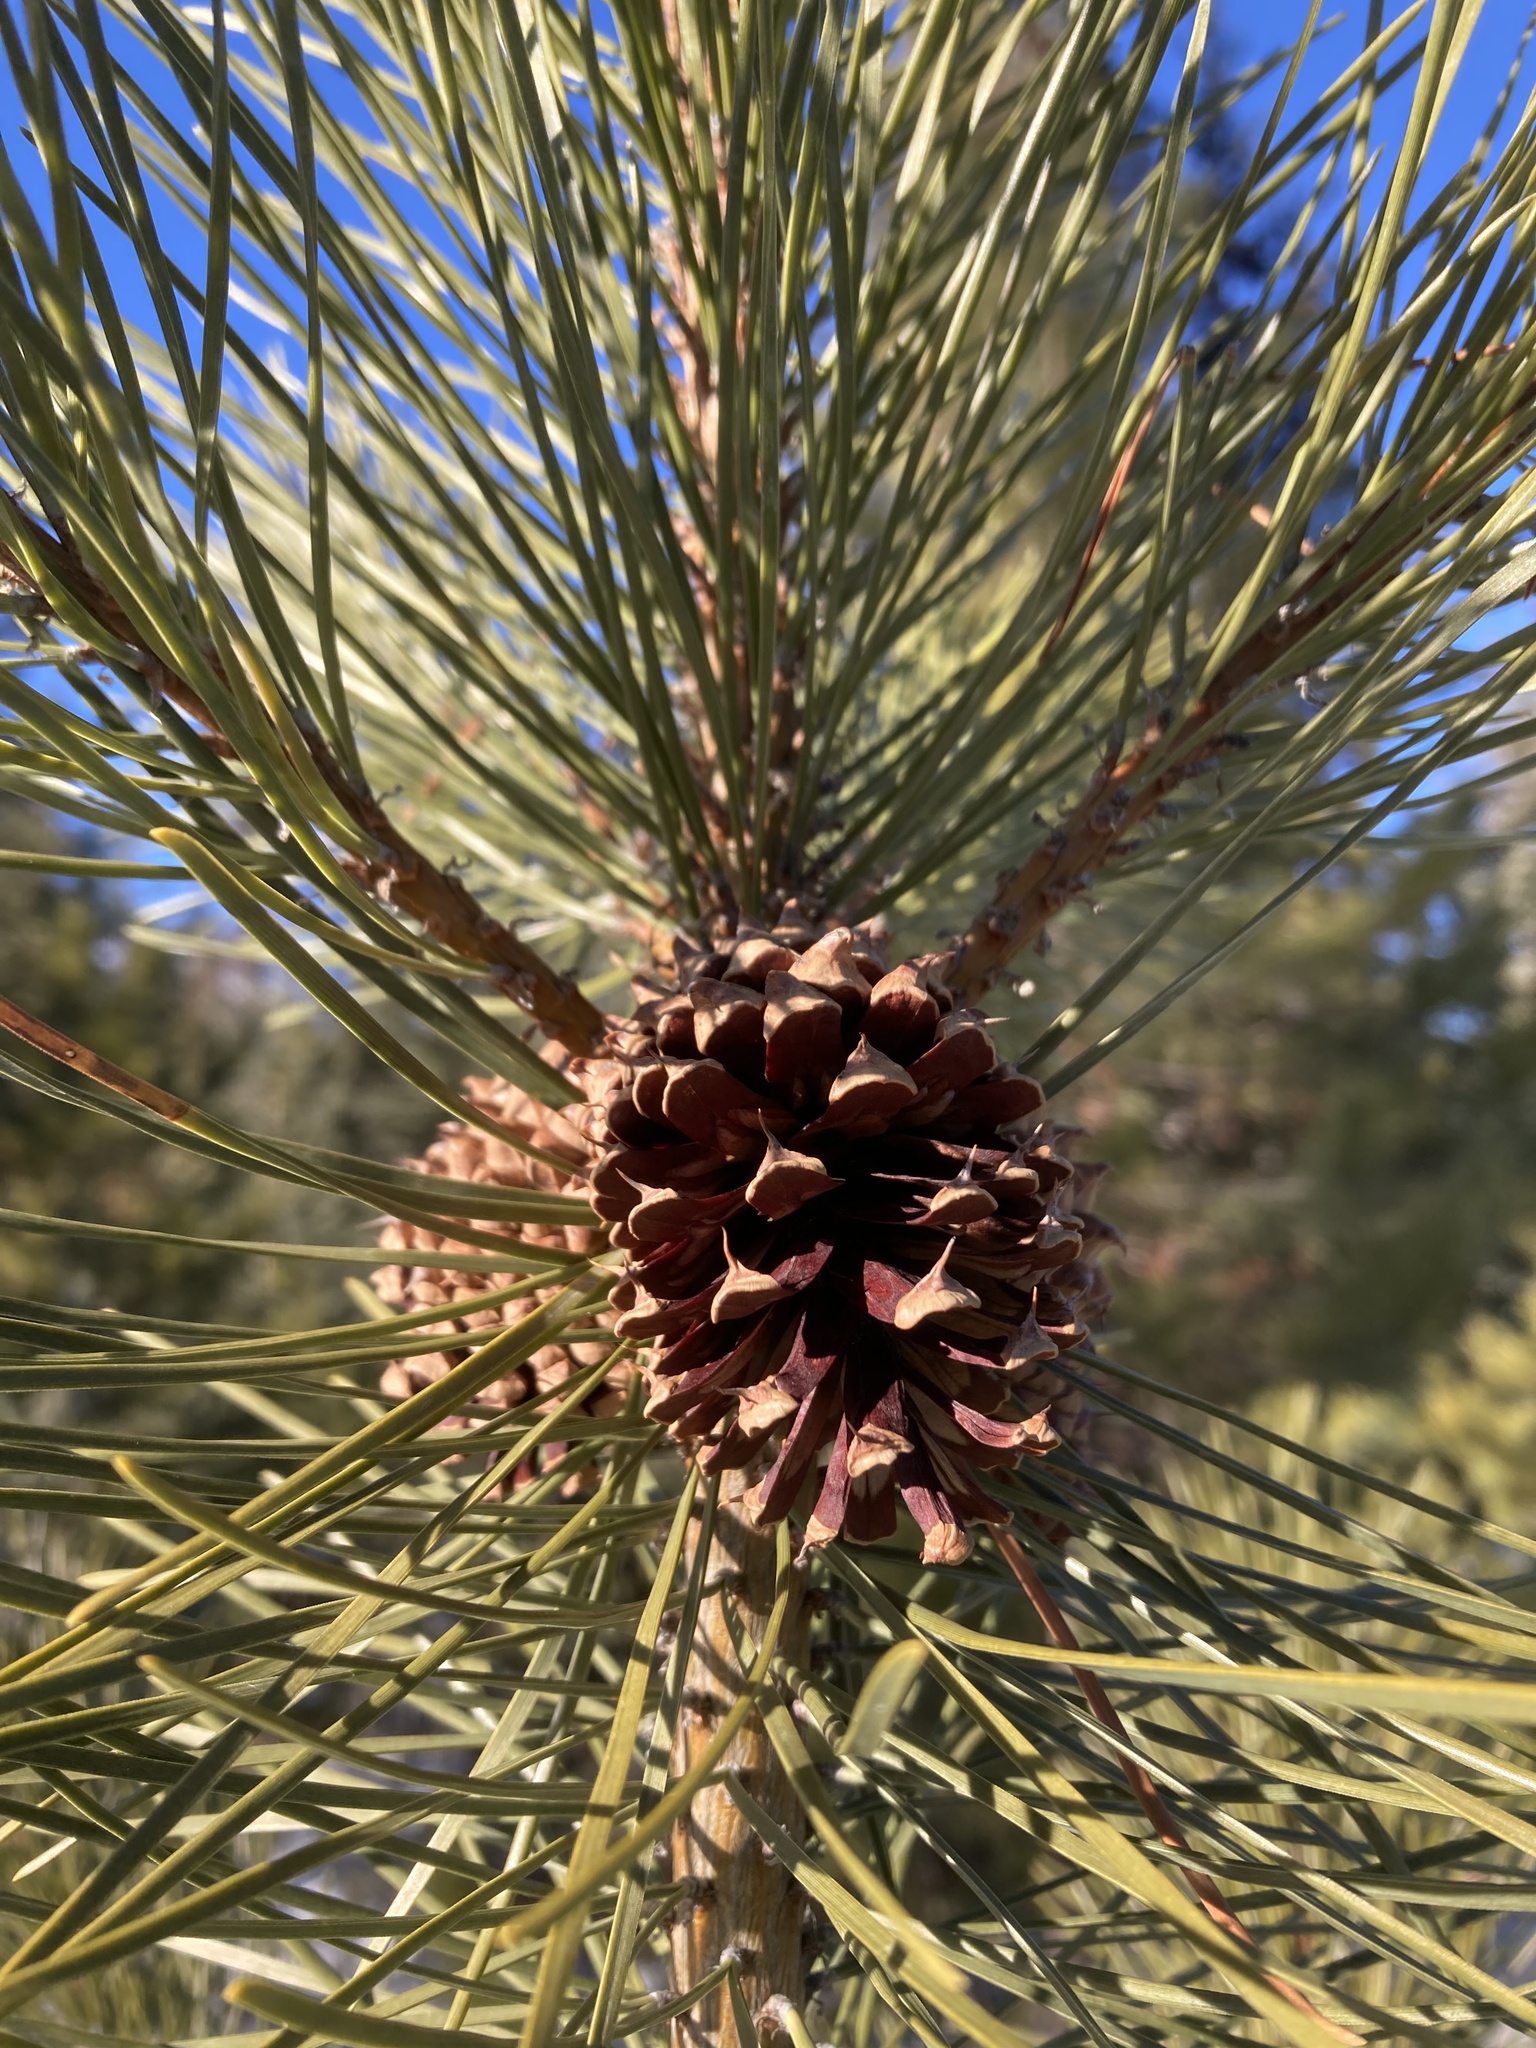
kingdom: Plantae
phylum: Tracheophyta
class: Pinopsida
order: Pinales
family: Pinaceae
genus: Pinus
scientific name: Pinus contorta
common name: Lodgepole pine
